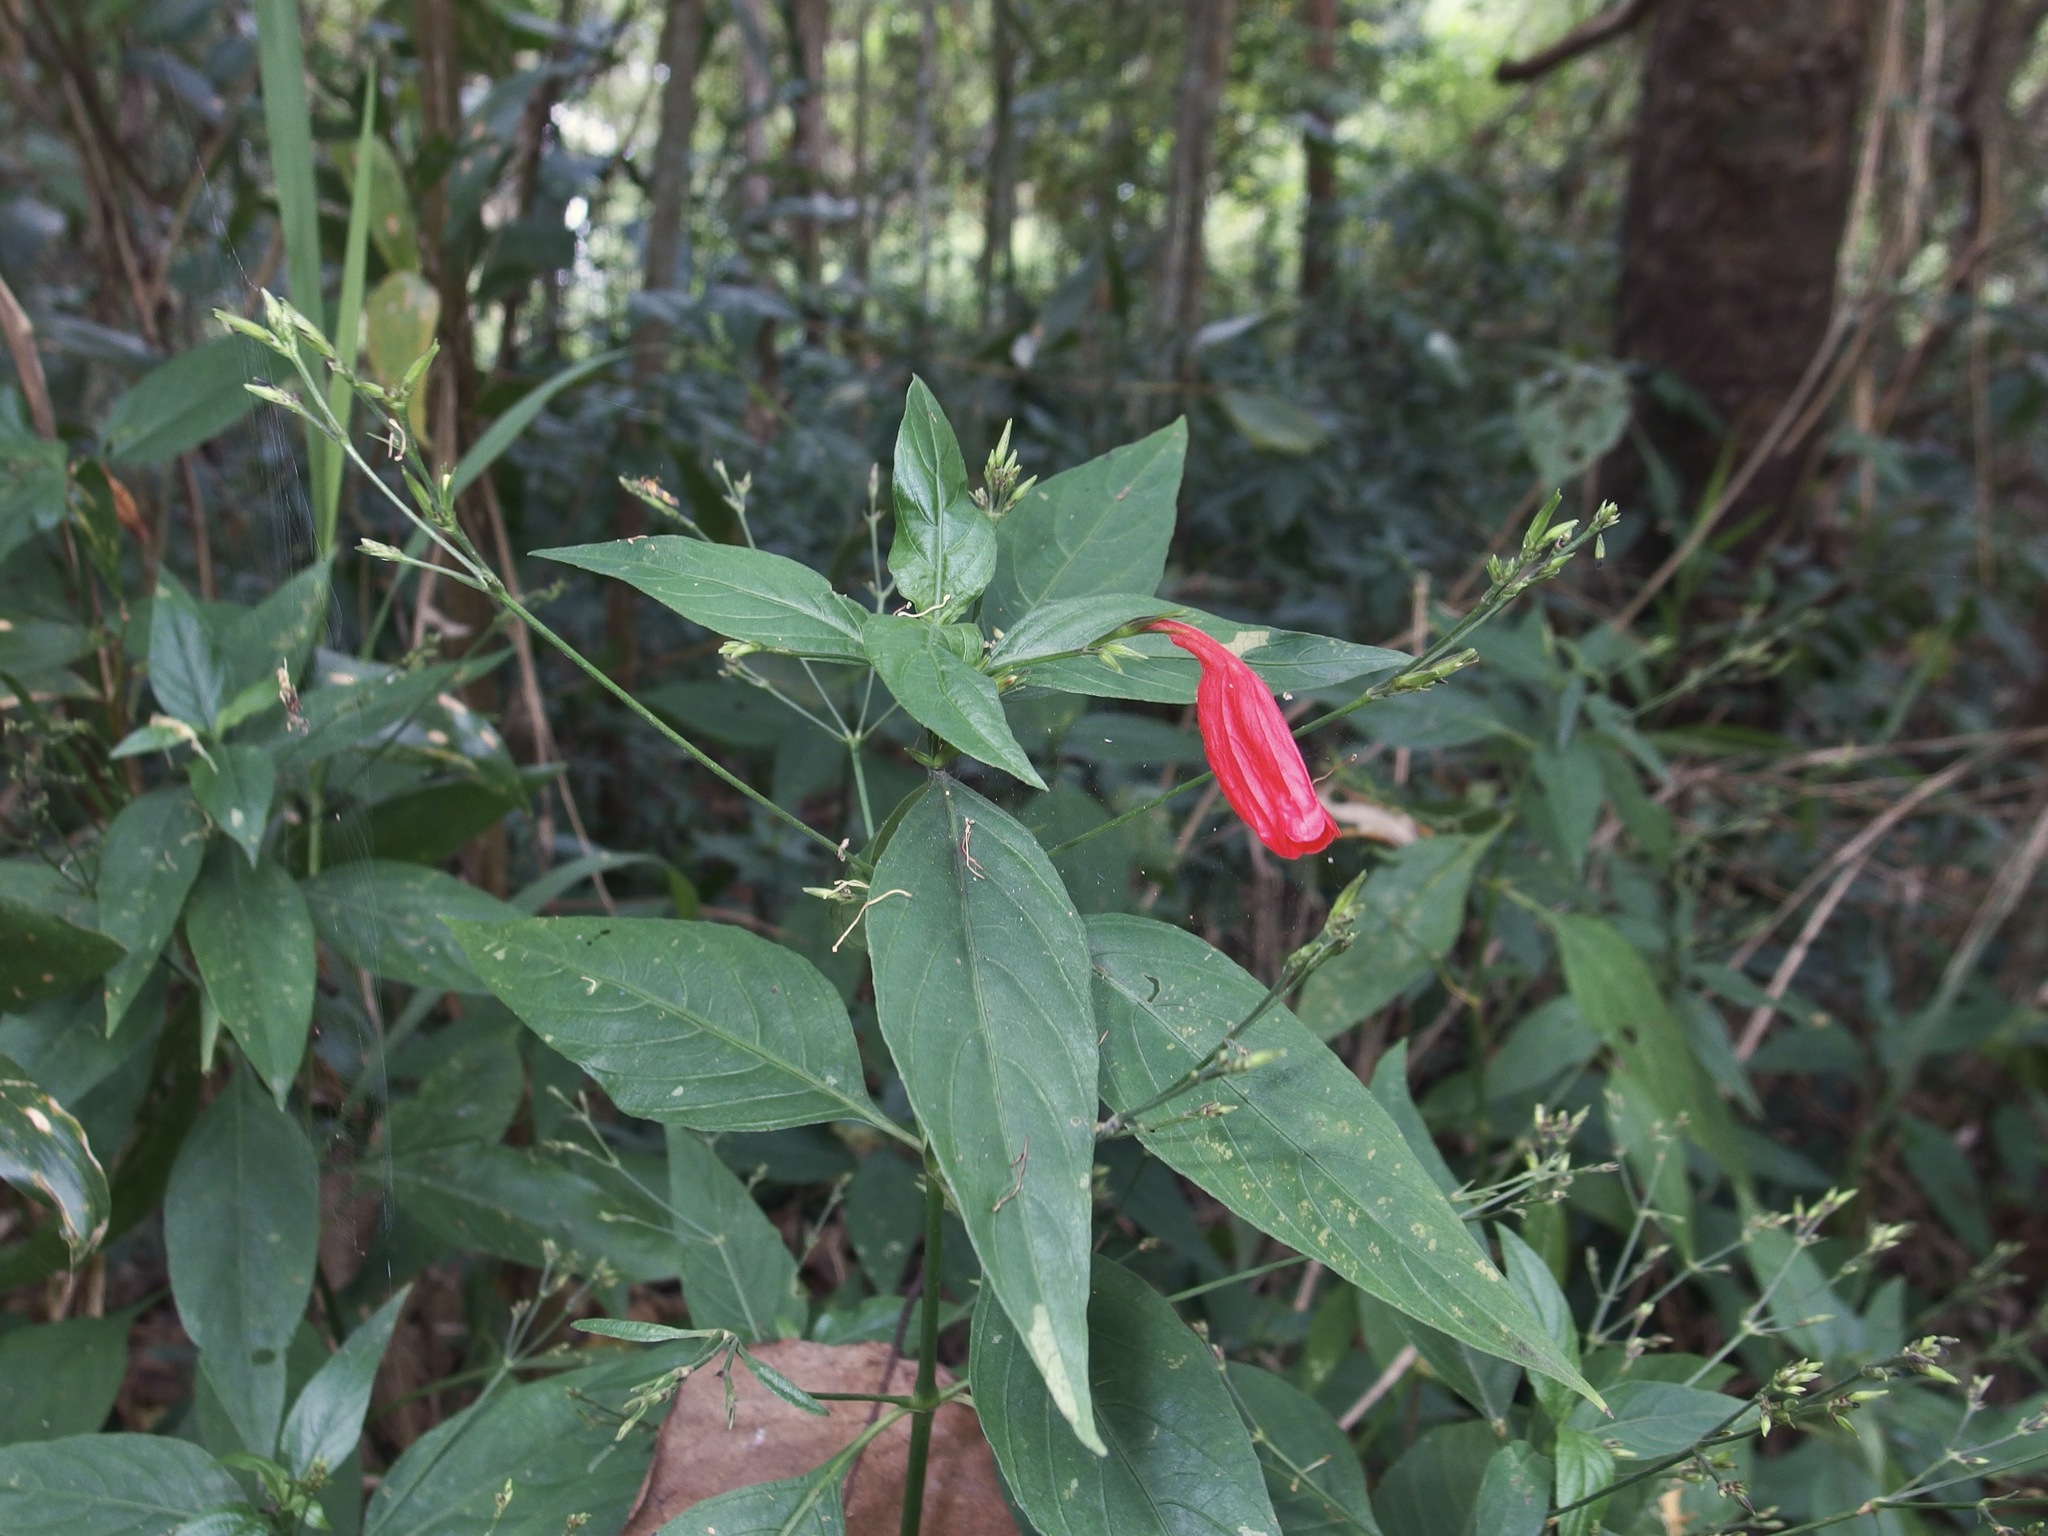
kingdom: Plantae
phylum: Tracheophyta
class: Magnoliopsida
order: Lamiales
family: Acanthaceae
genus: Ruellia
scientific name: Ruellia brevifolia
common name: Tropical wild petunia
